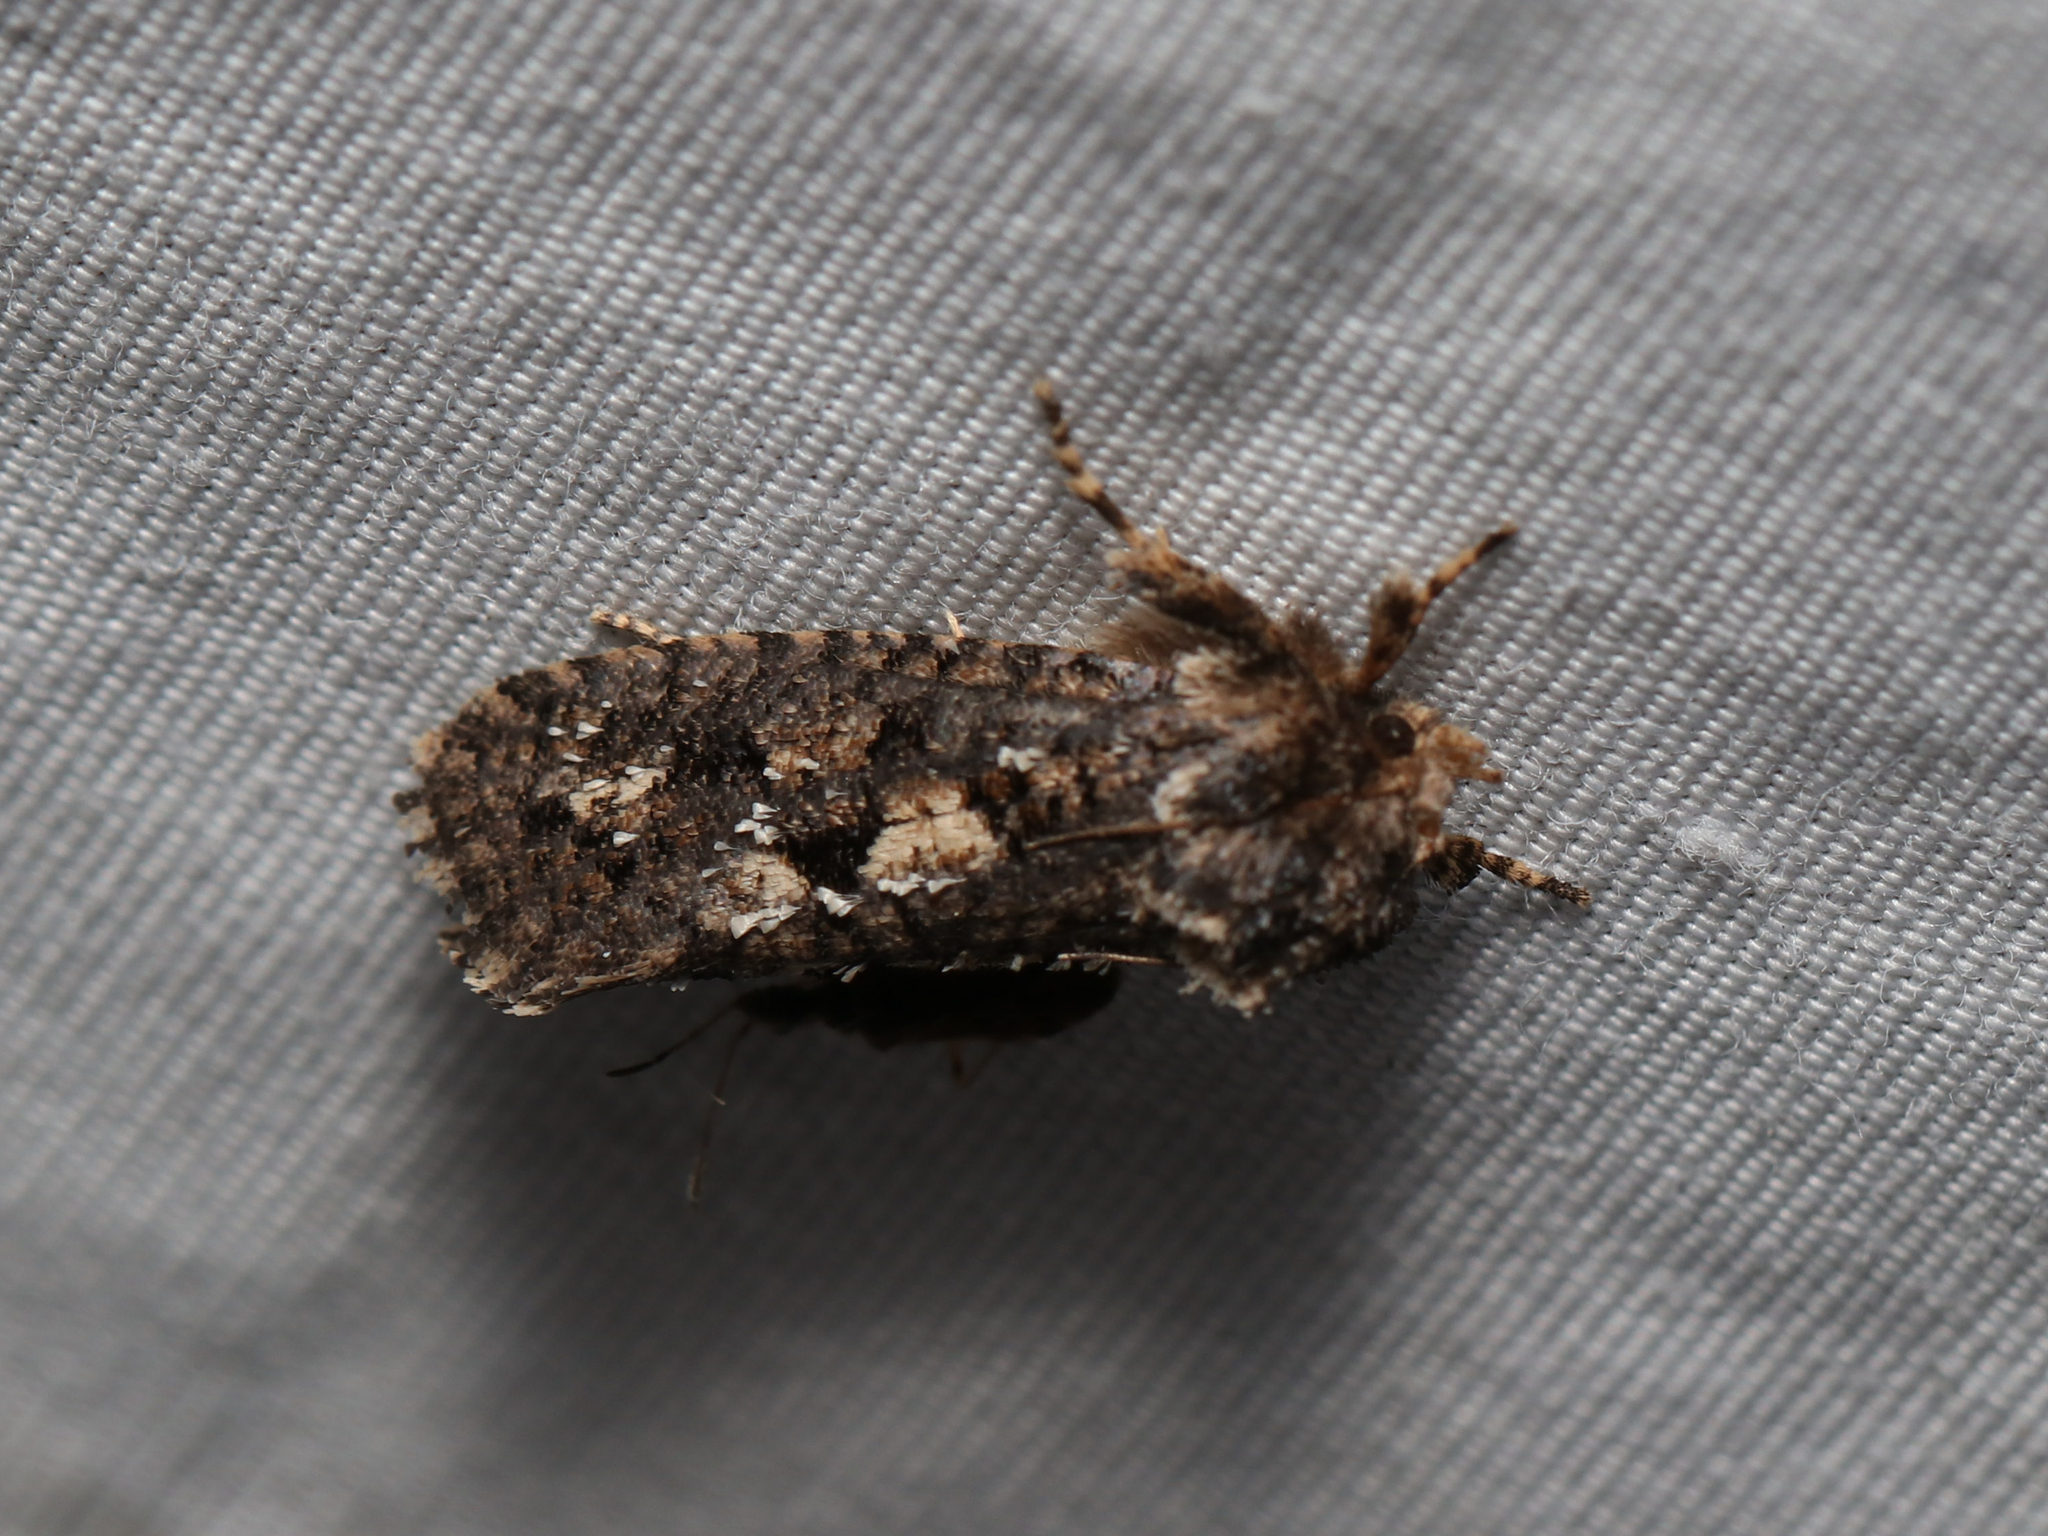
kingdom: Animalia
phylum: Arthropoda
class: Insecta
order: Lepidoptera
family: Tineidae
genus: Acrolophus
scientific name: Acrolophus arcanella
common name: Arcane grass tubeworm moth
